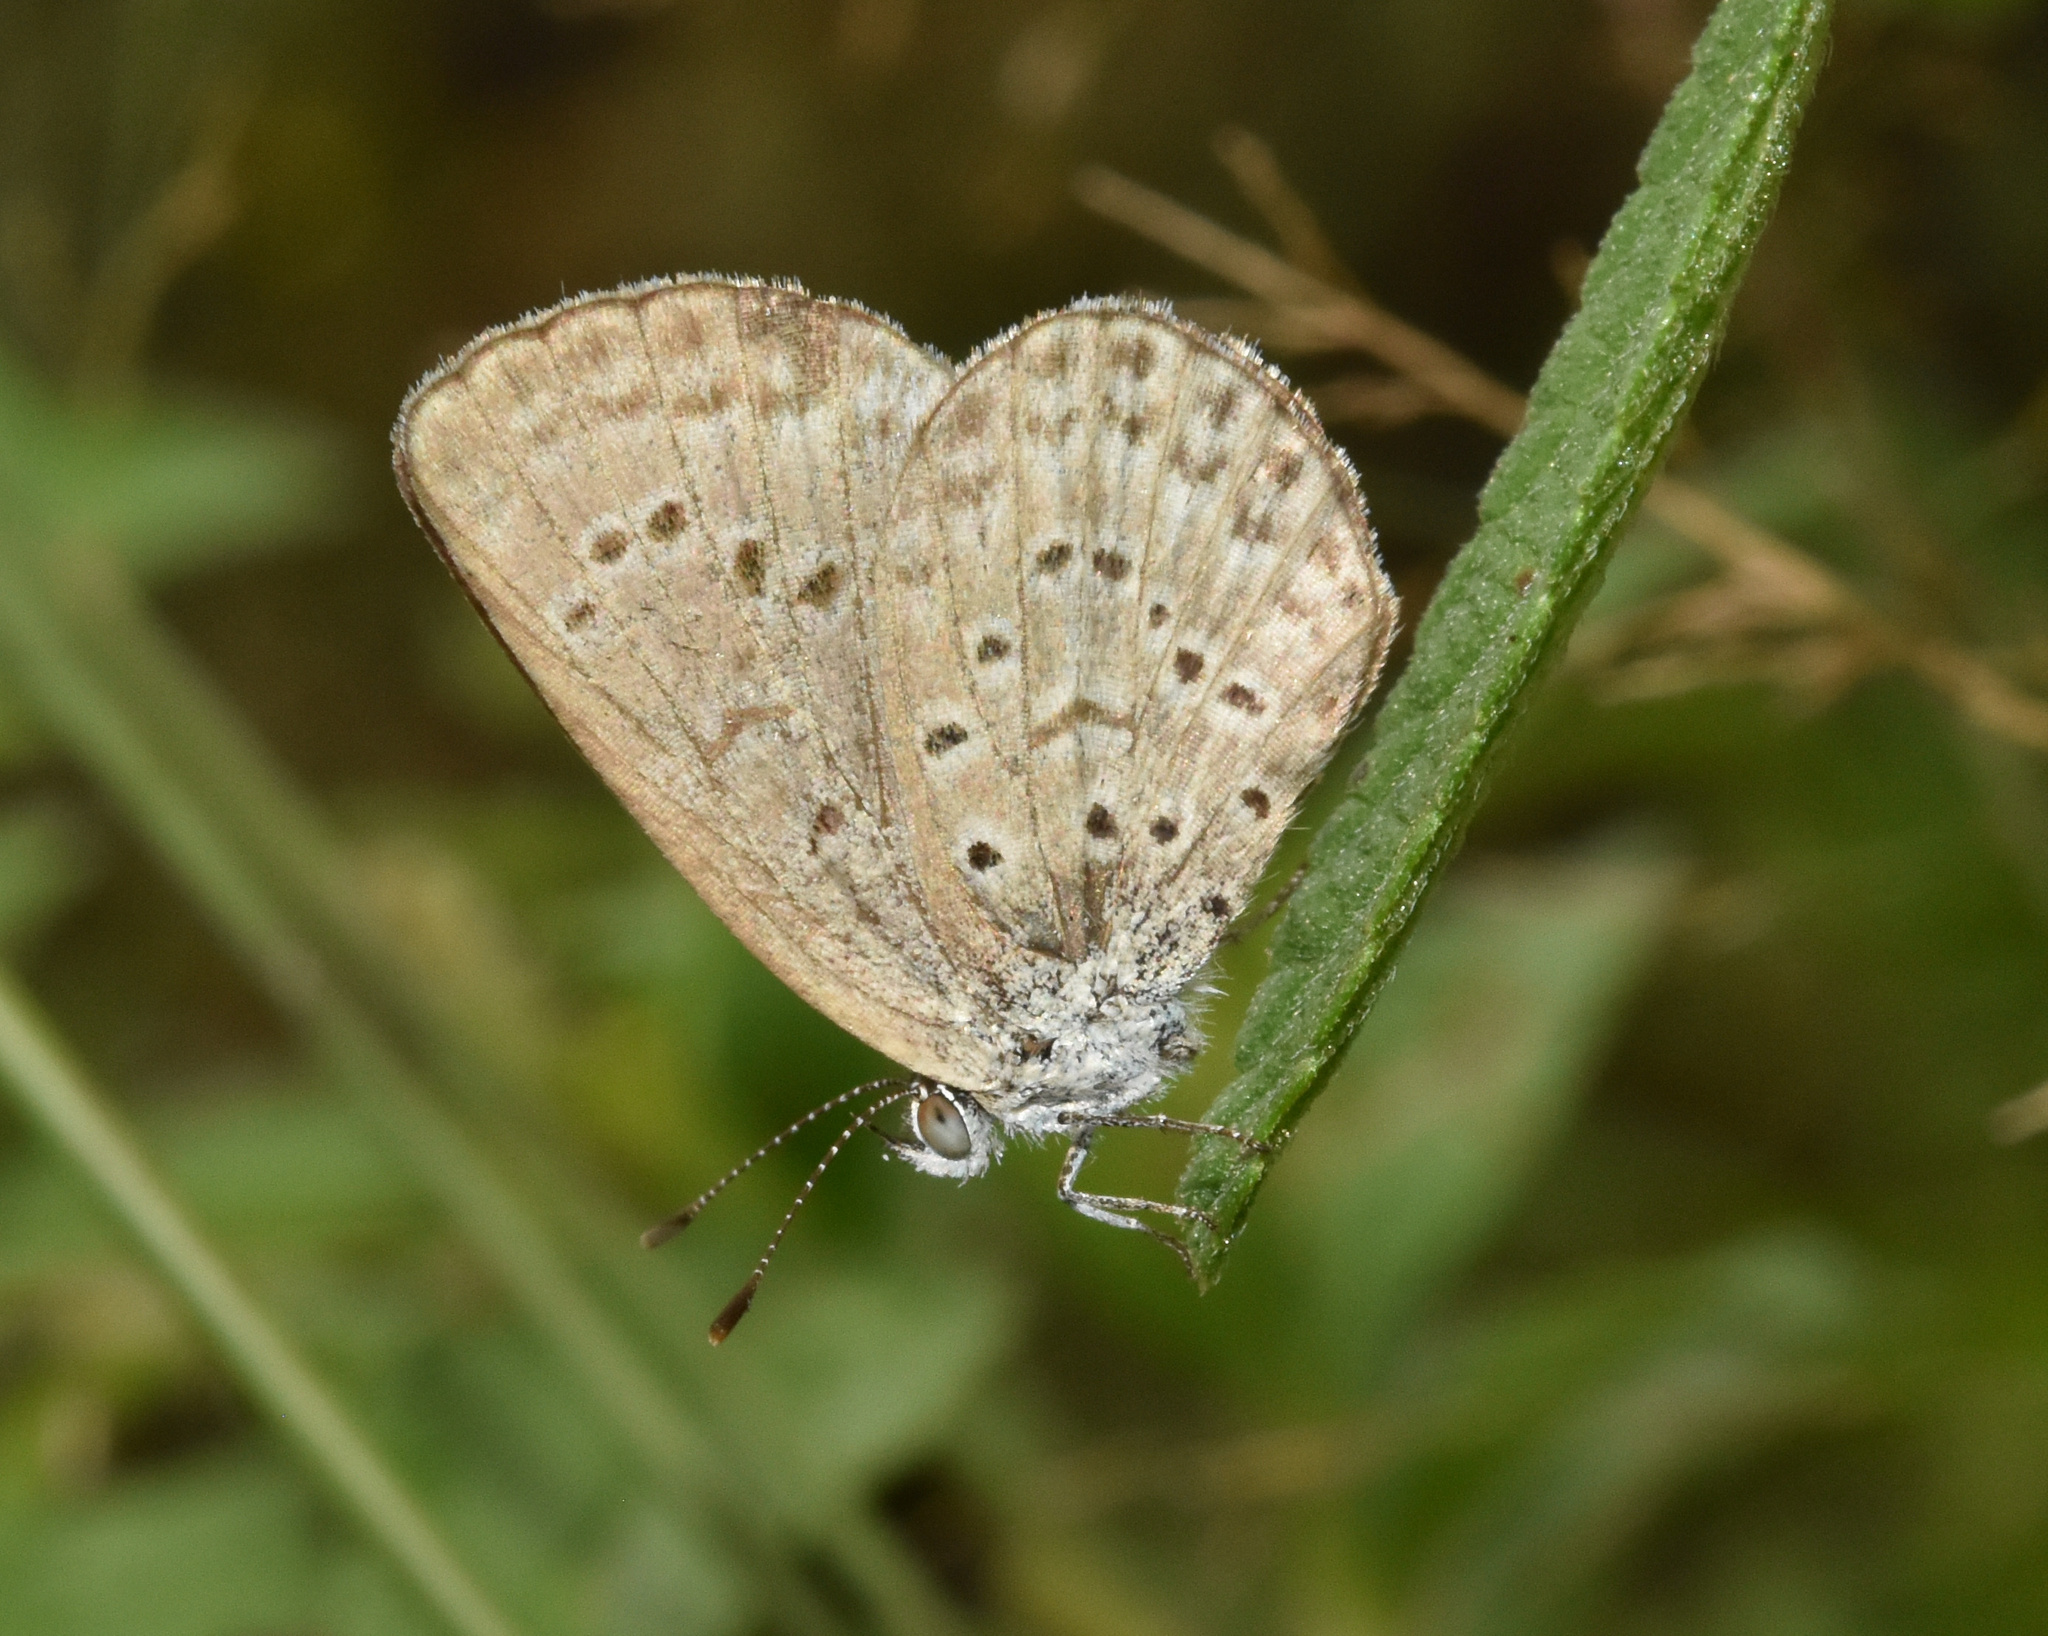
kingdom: Animalia
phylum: Arthropoda
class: Insecta
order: Lepidoptera
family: Lycaenidae
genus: Zizeeria
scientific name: Zizeeria knysna
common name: African grass blue
